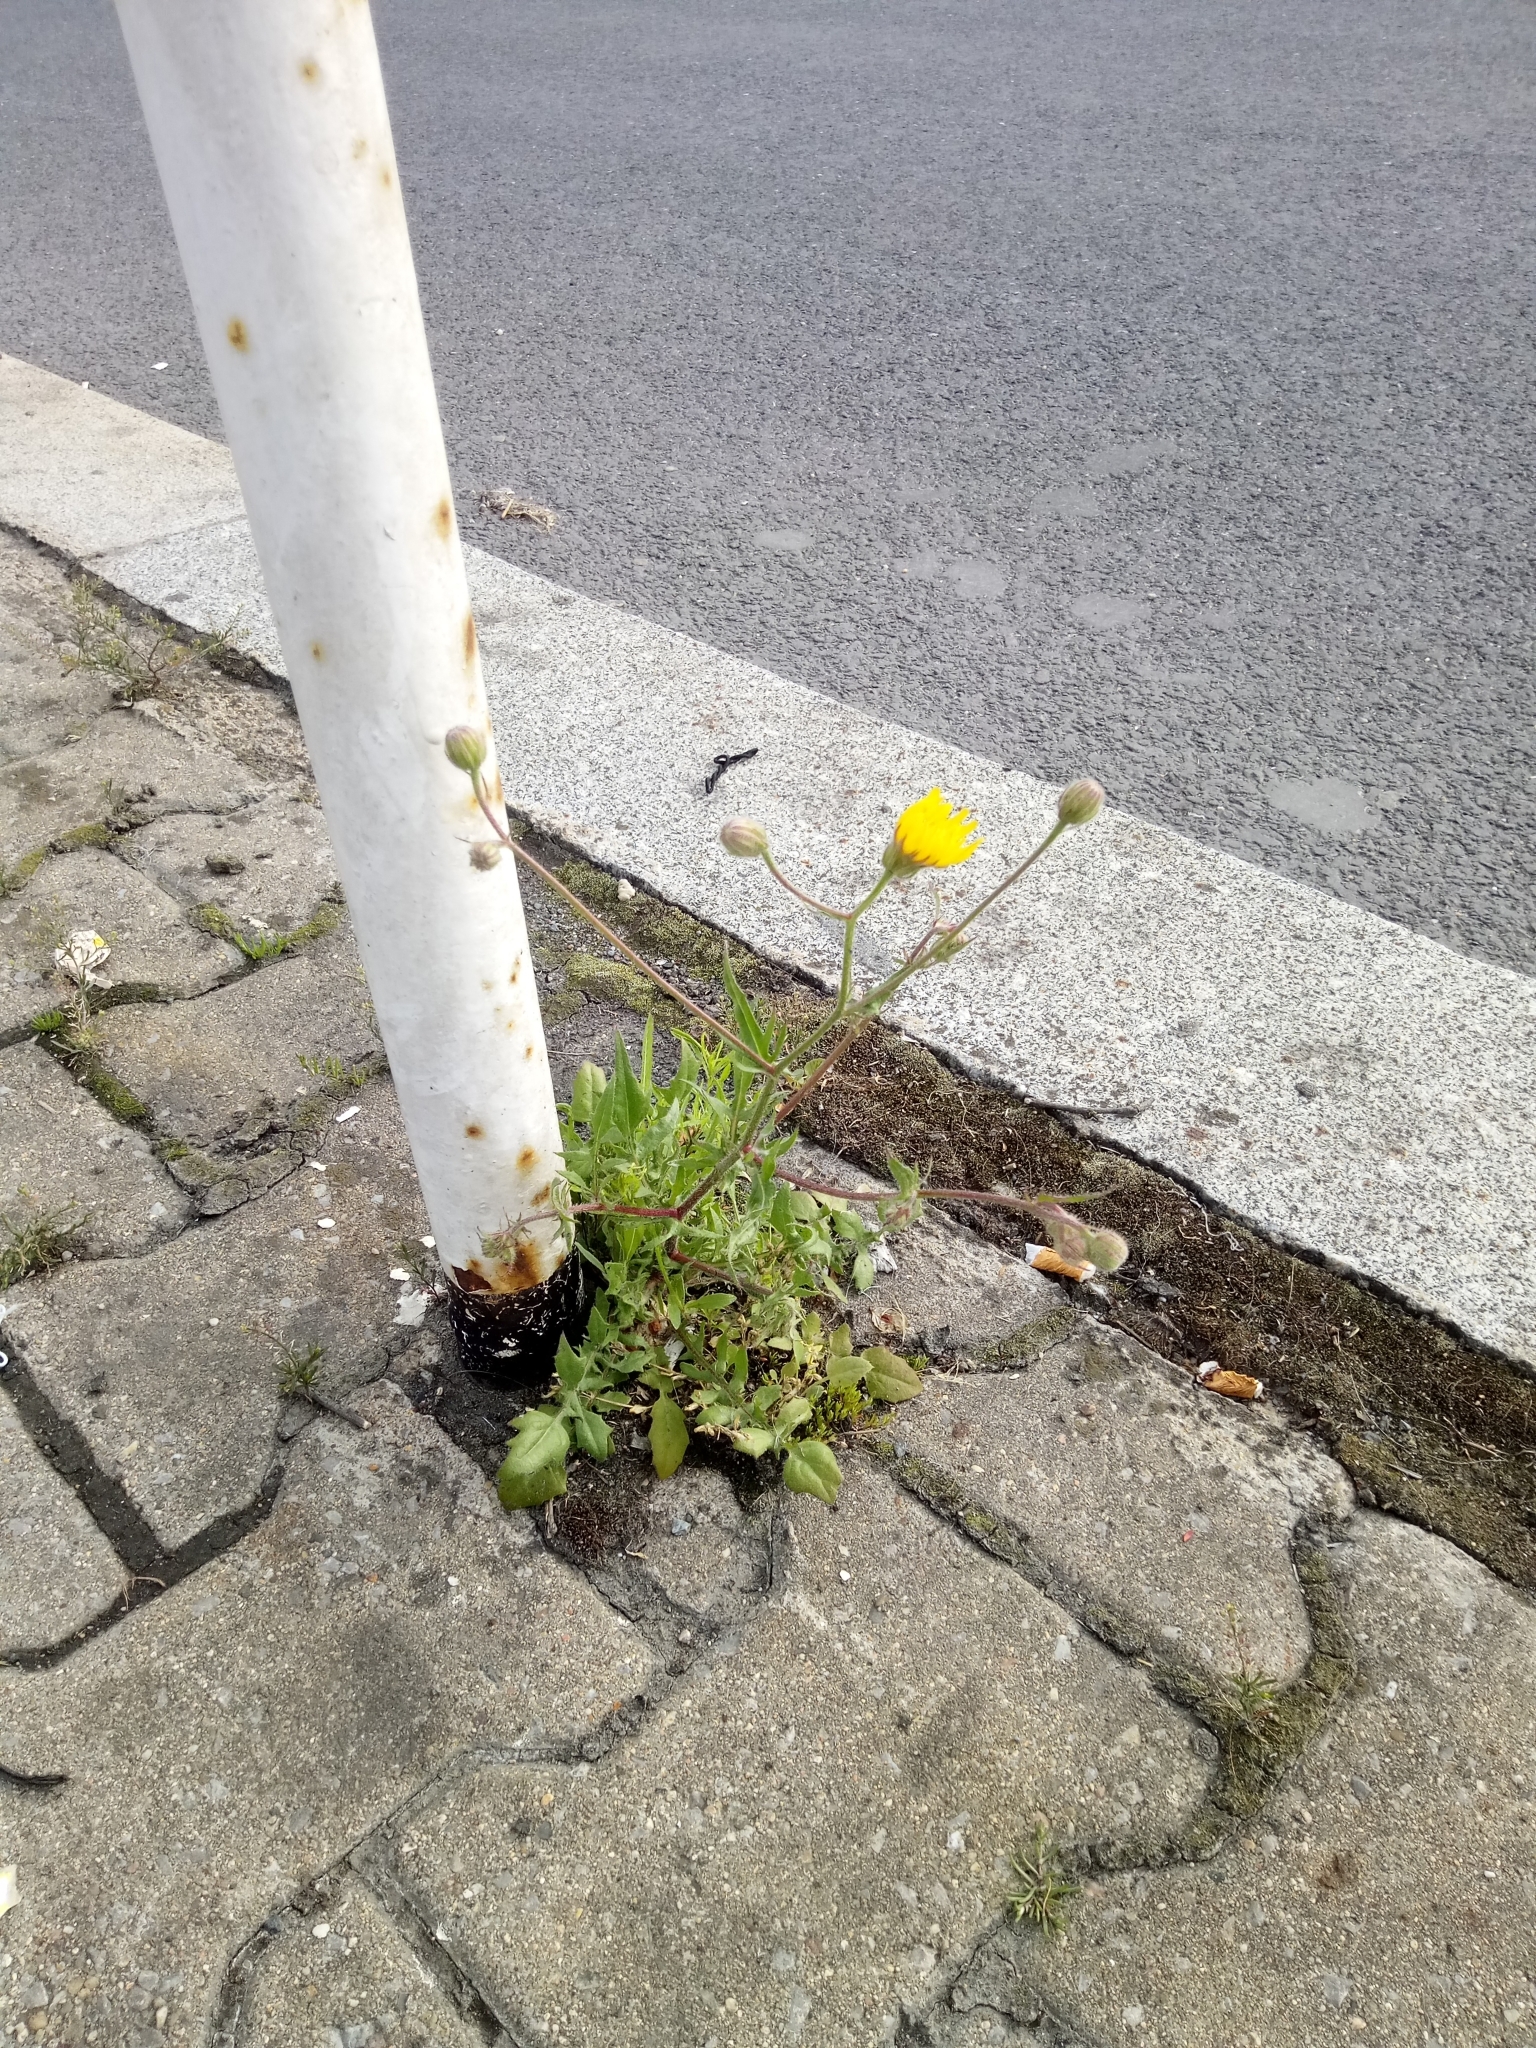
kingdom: Plantae
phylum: Tracheophyta
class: Magnoliopsida
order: Asterales
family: Asteraceae
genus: Crepis
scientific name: Crepis foetida
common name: Stinking hawk's-beard
